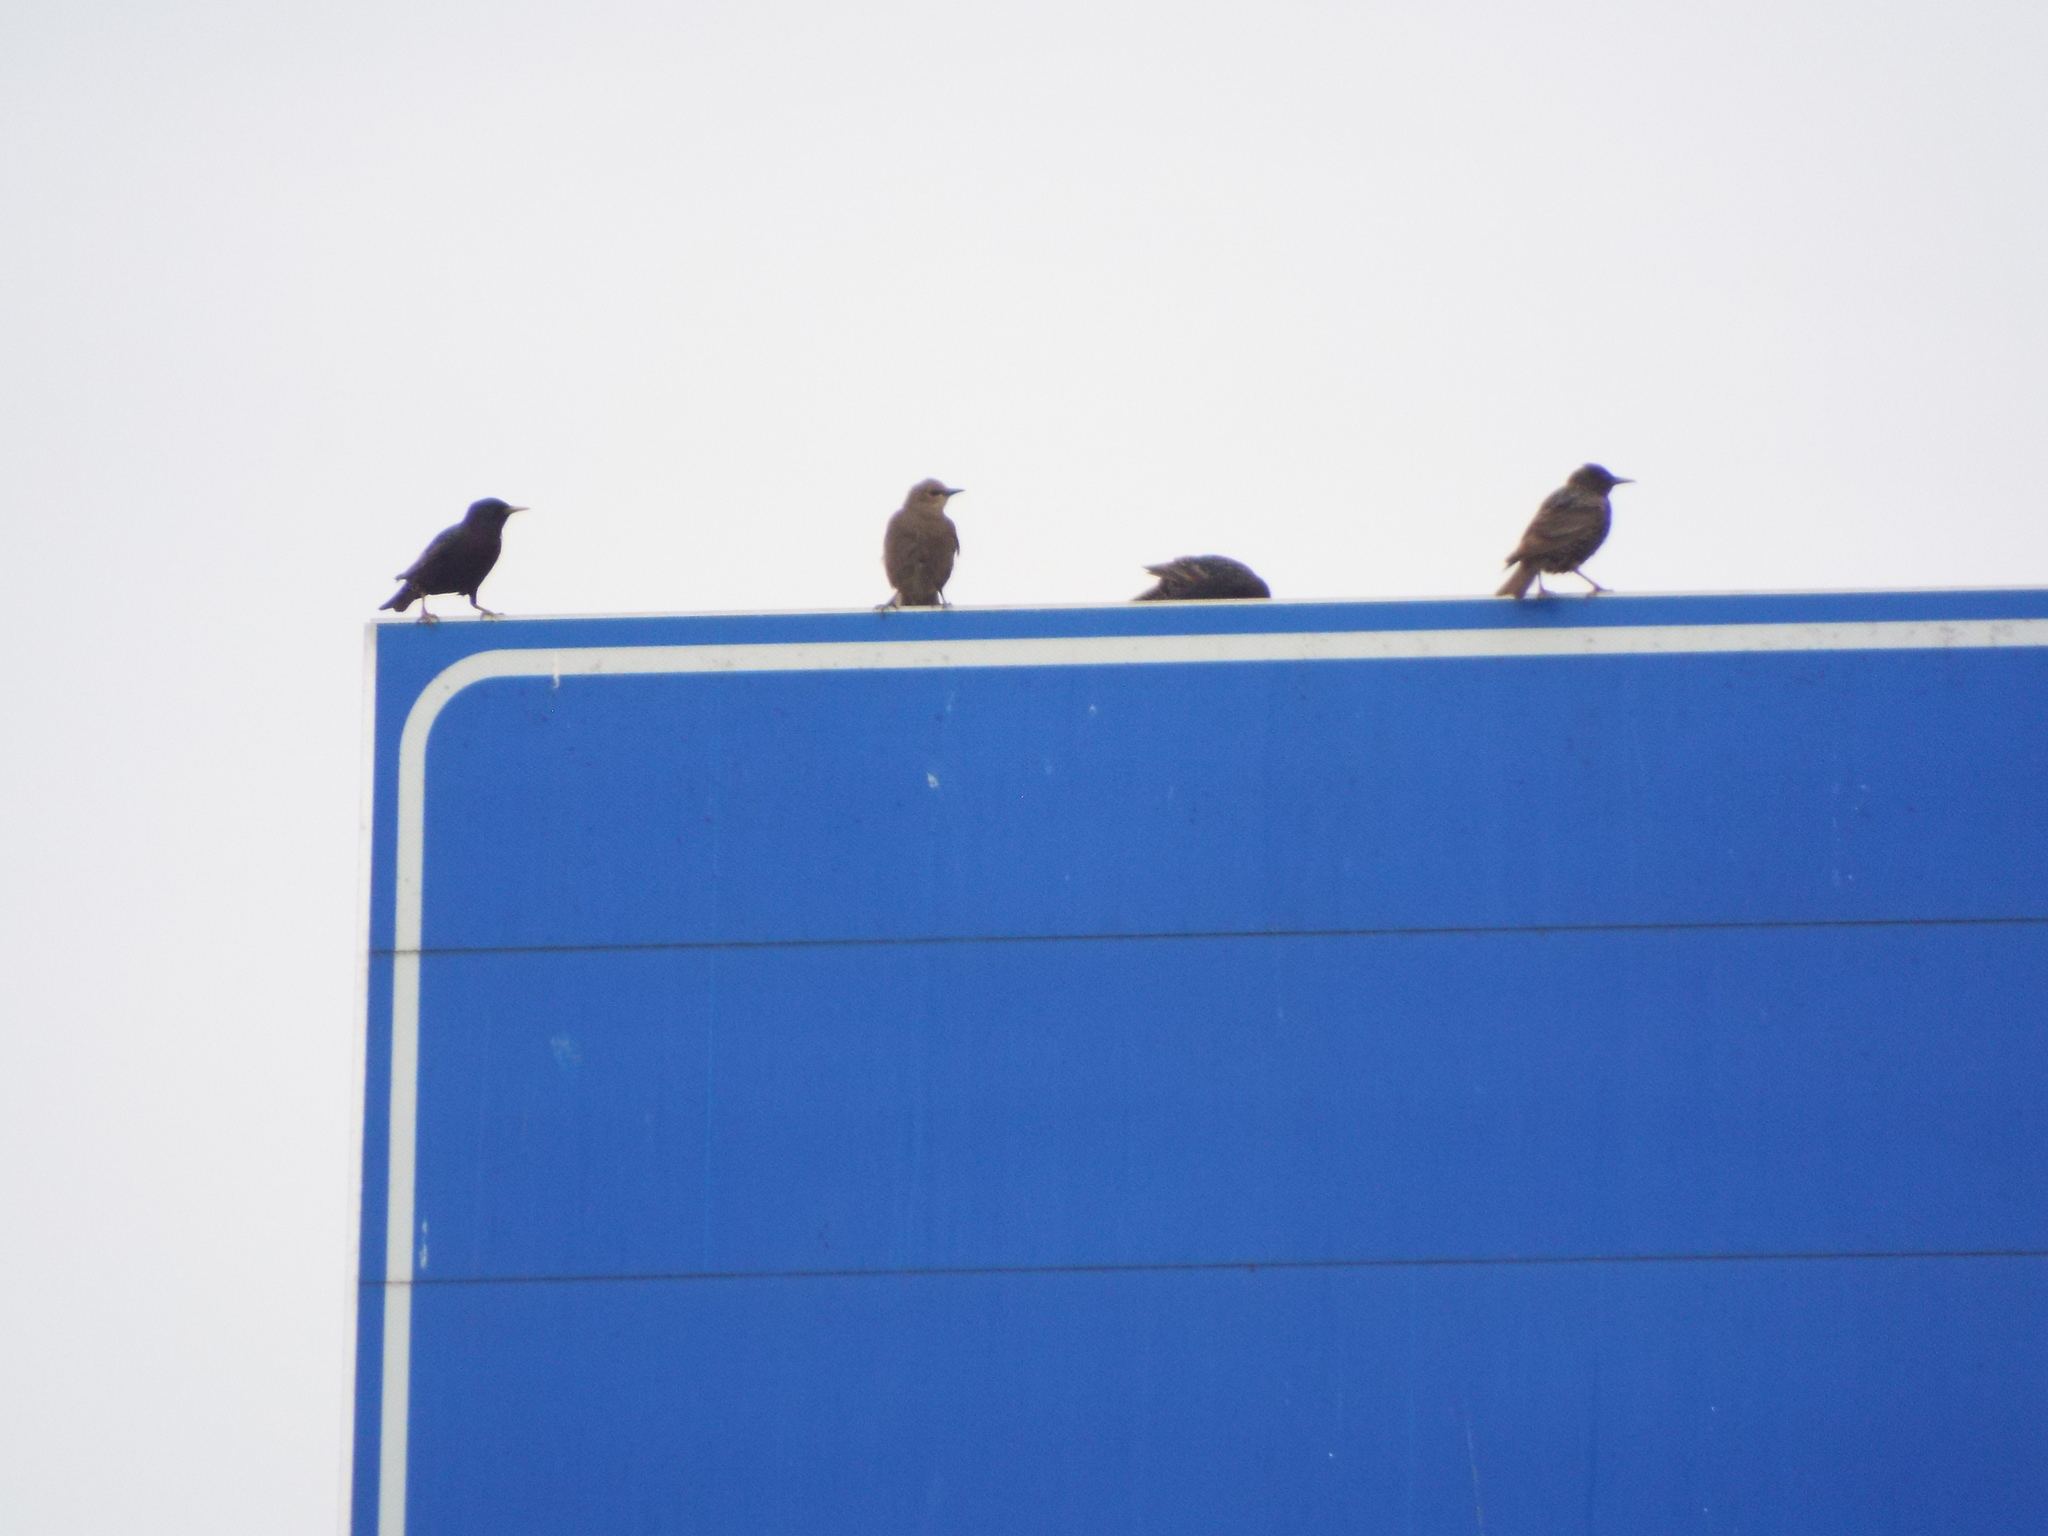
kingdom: Animalia
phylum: Chordata
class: Aves
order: Passeriformes
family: Sturnidae
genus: Sturnus
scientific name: Sturnus vulgaris
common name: Common starling
